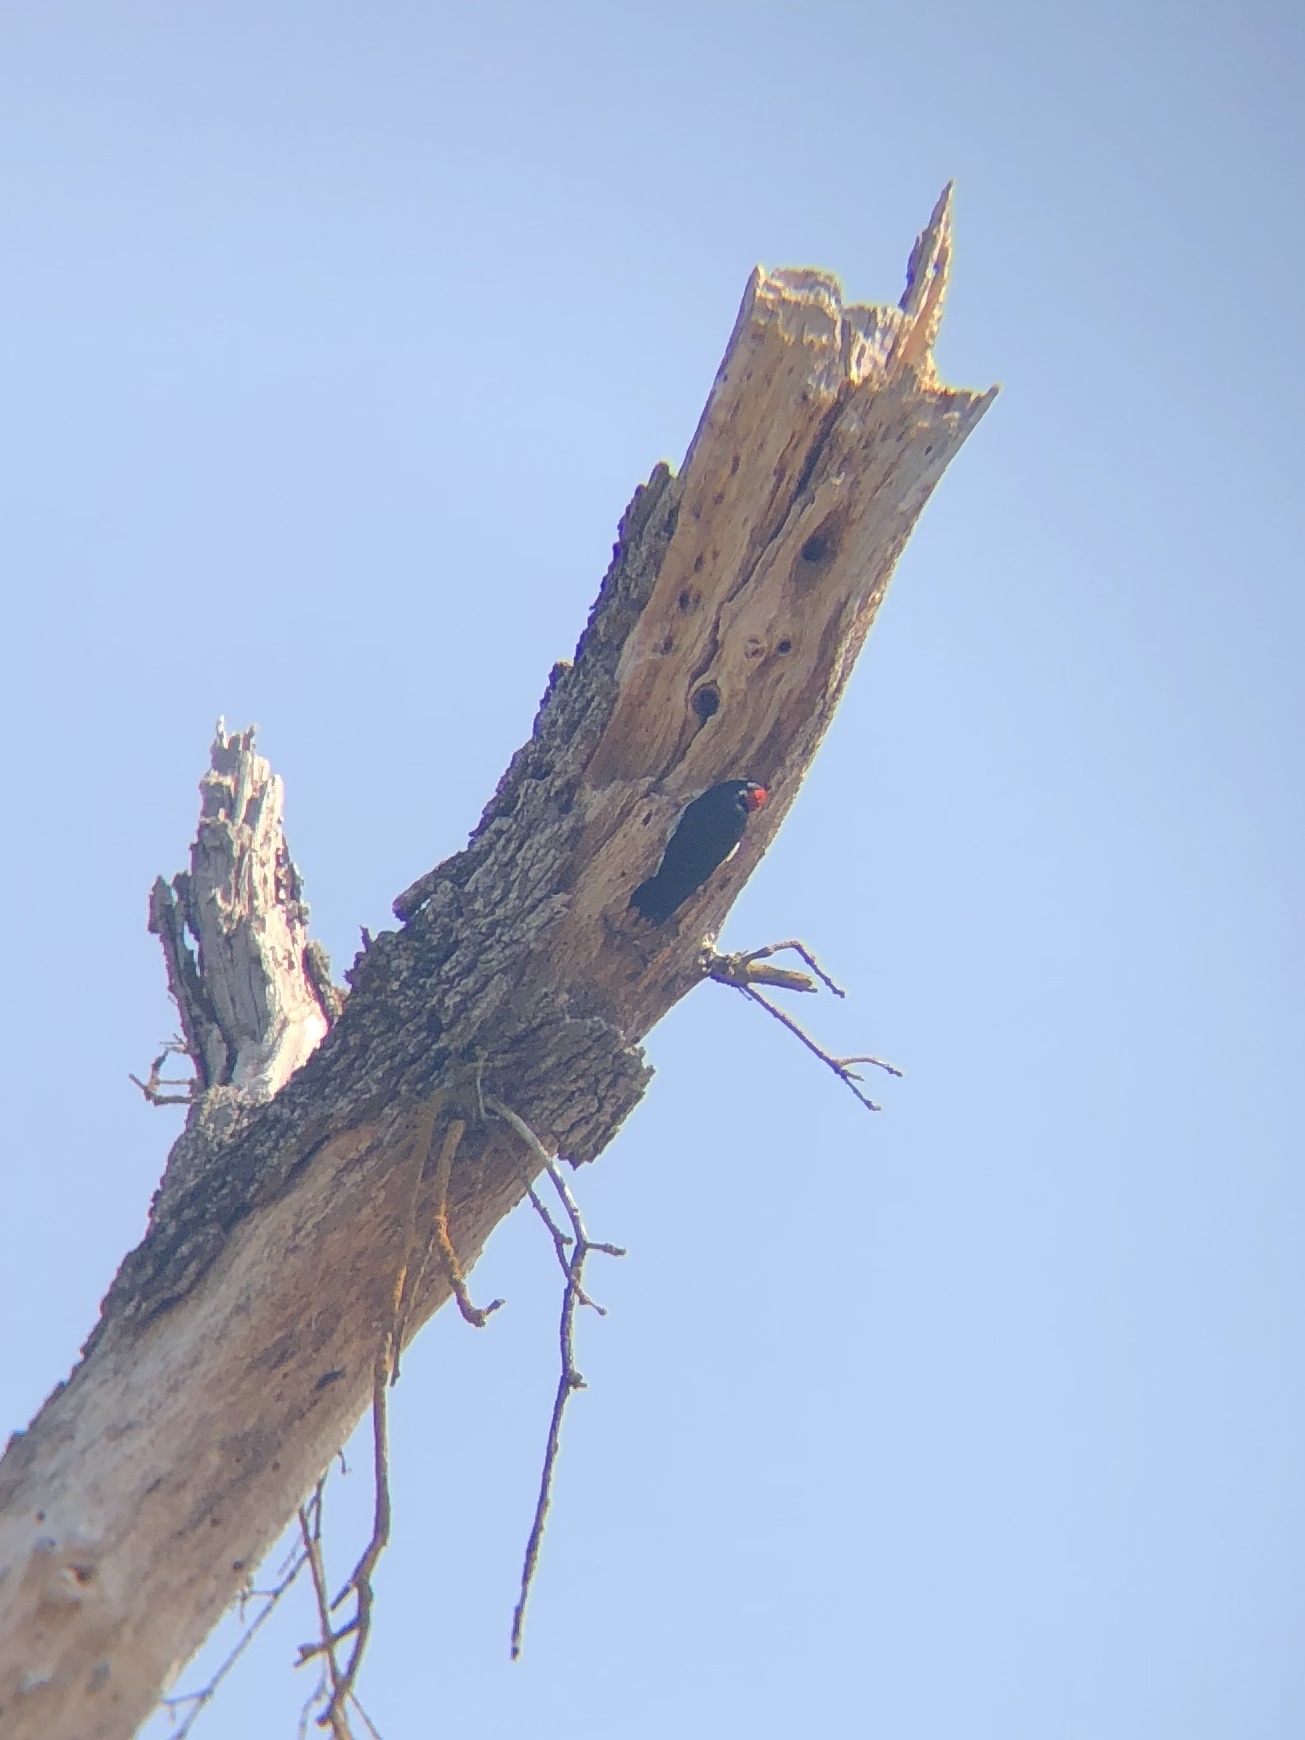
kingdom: Animalia
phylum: Chordata
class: Aves
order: Piciformes
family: Picidae
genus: Melanerpes
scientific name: Melanerpes formicivorus
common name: Acorn woodpecker
